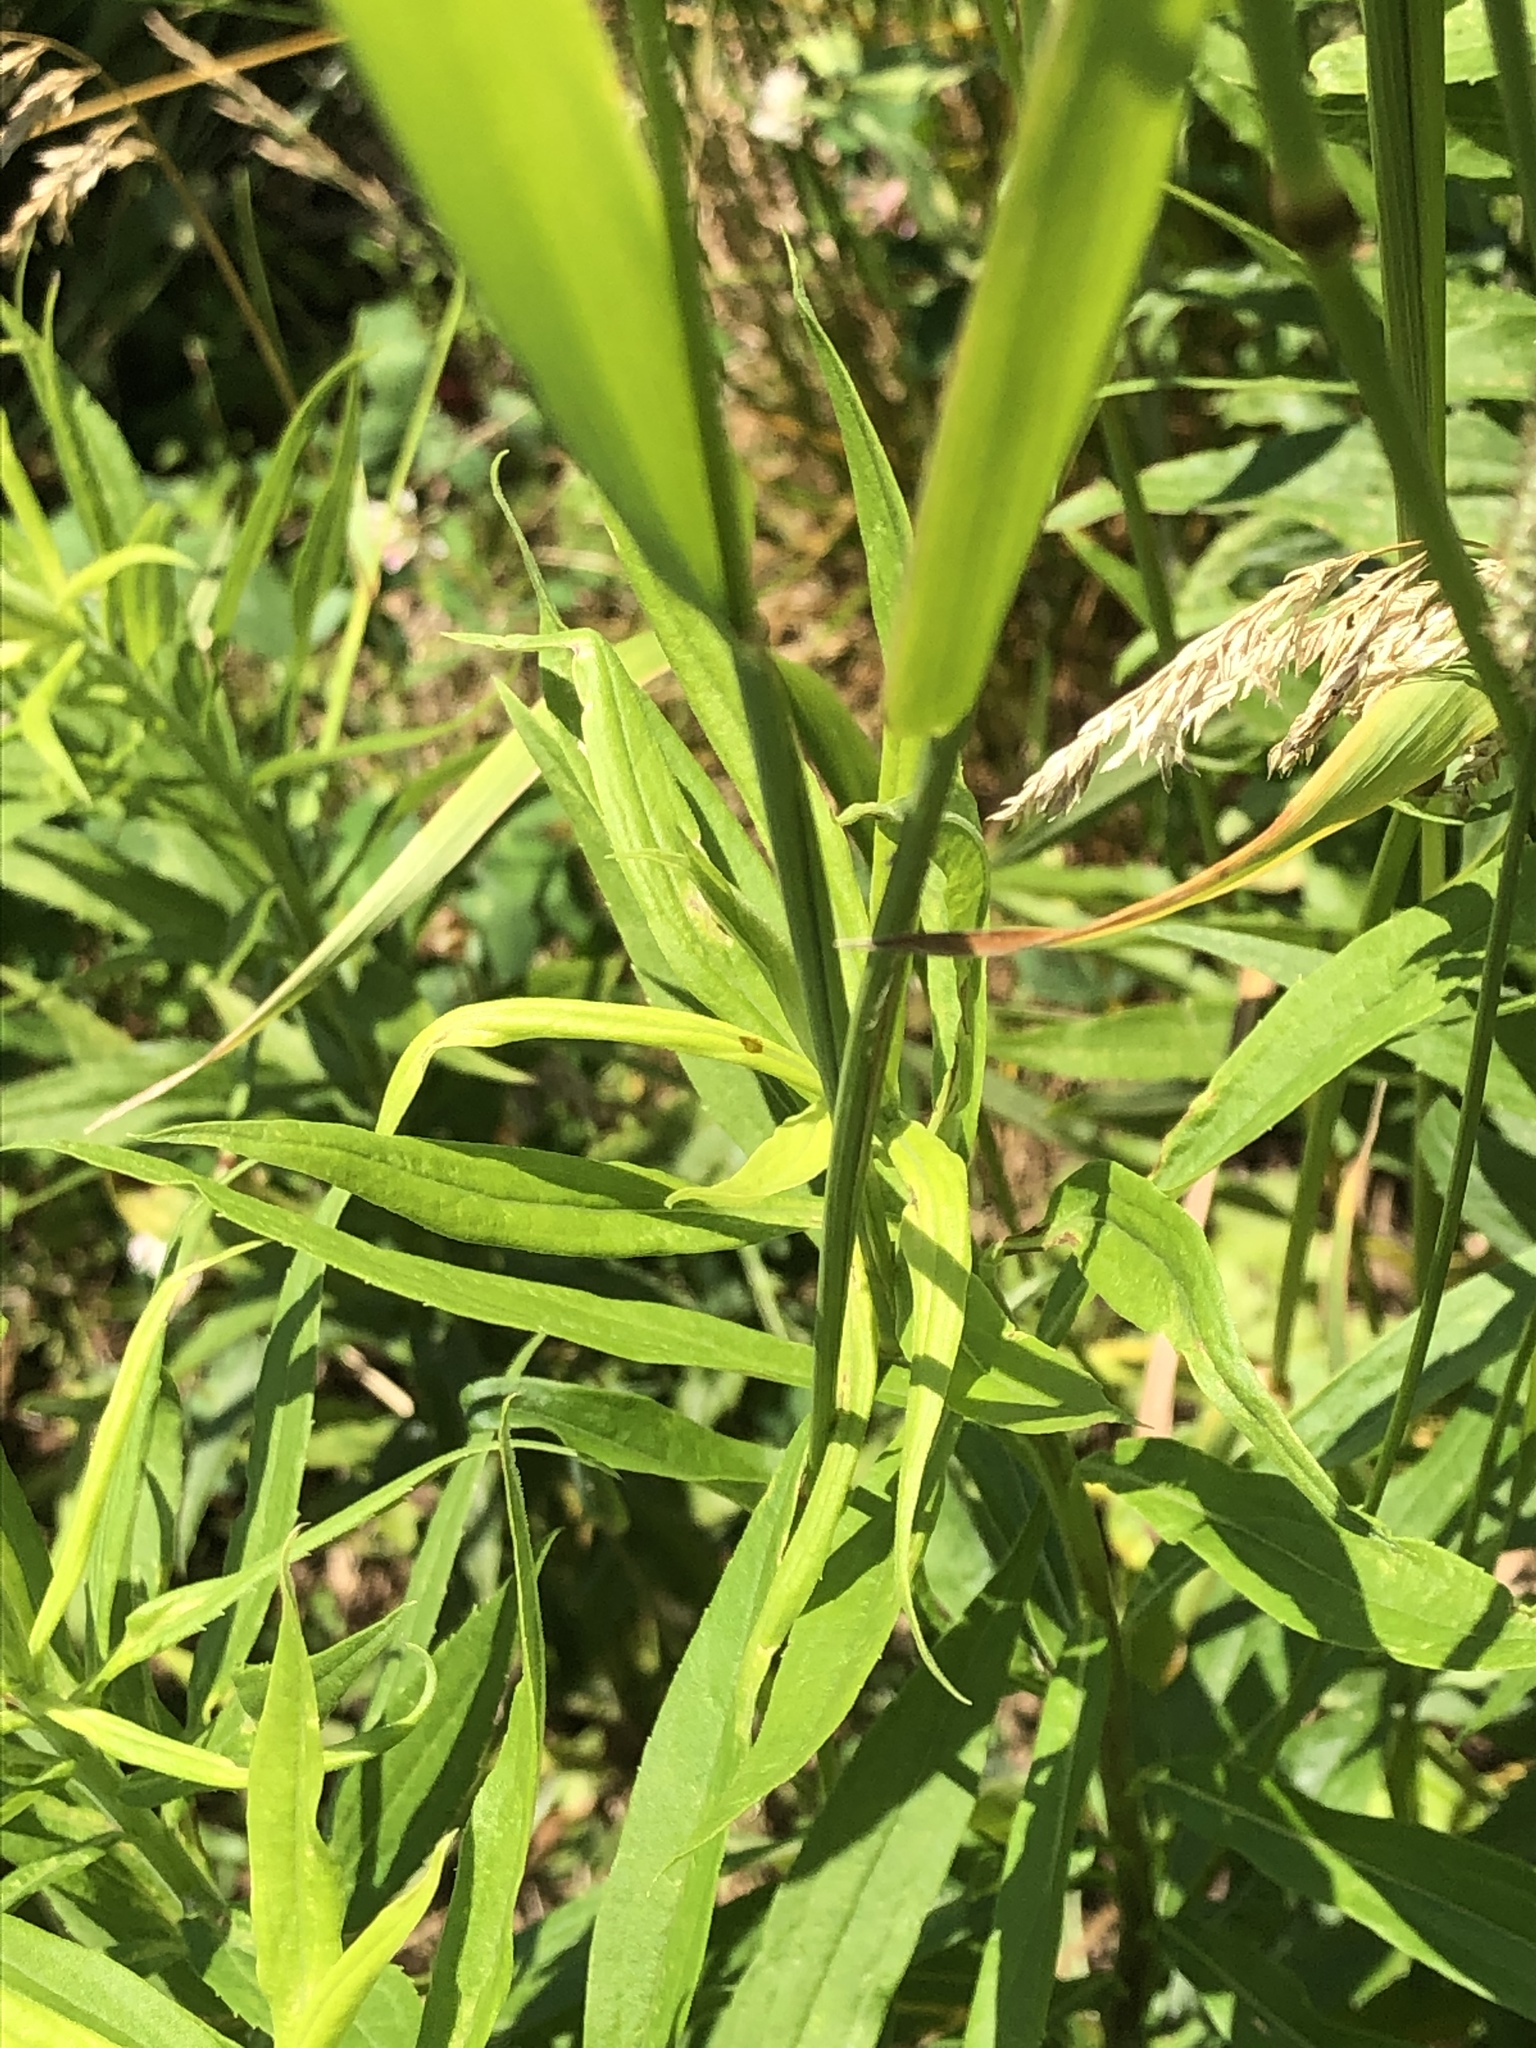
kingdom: Plantae
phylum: Tracheophyta
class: Liliopsida
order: Poales
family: Poaceae
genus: Phleum
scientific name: Phleum pratense
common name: Timothy grass
